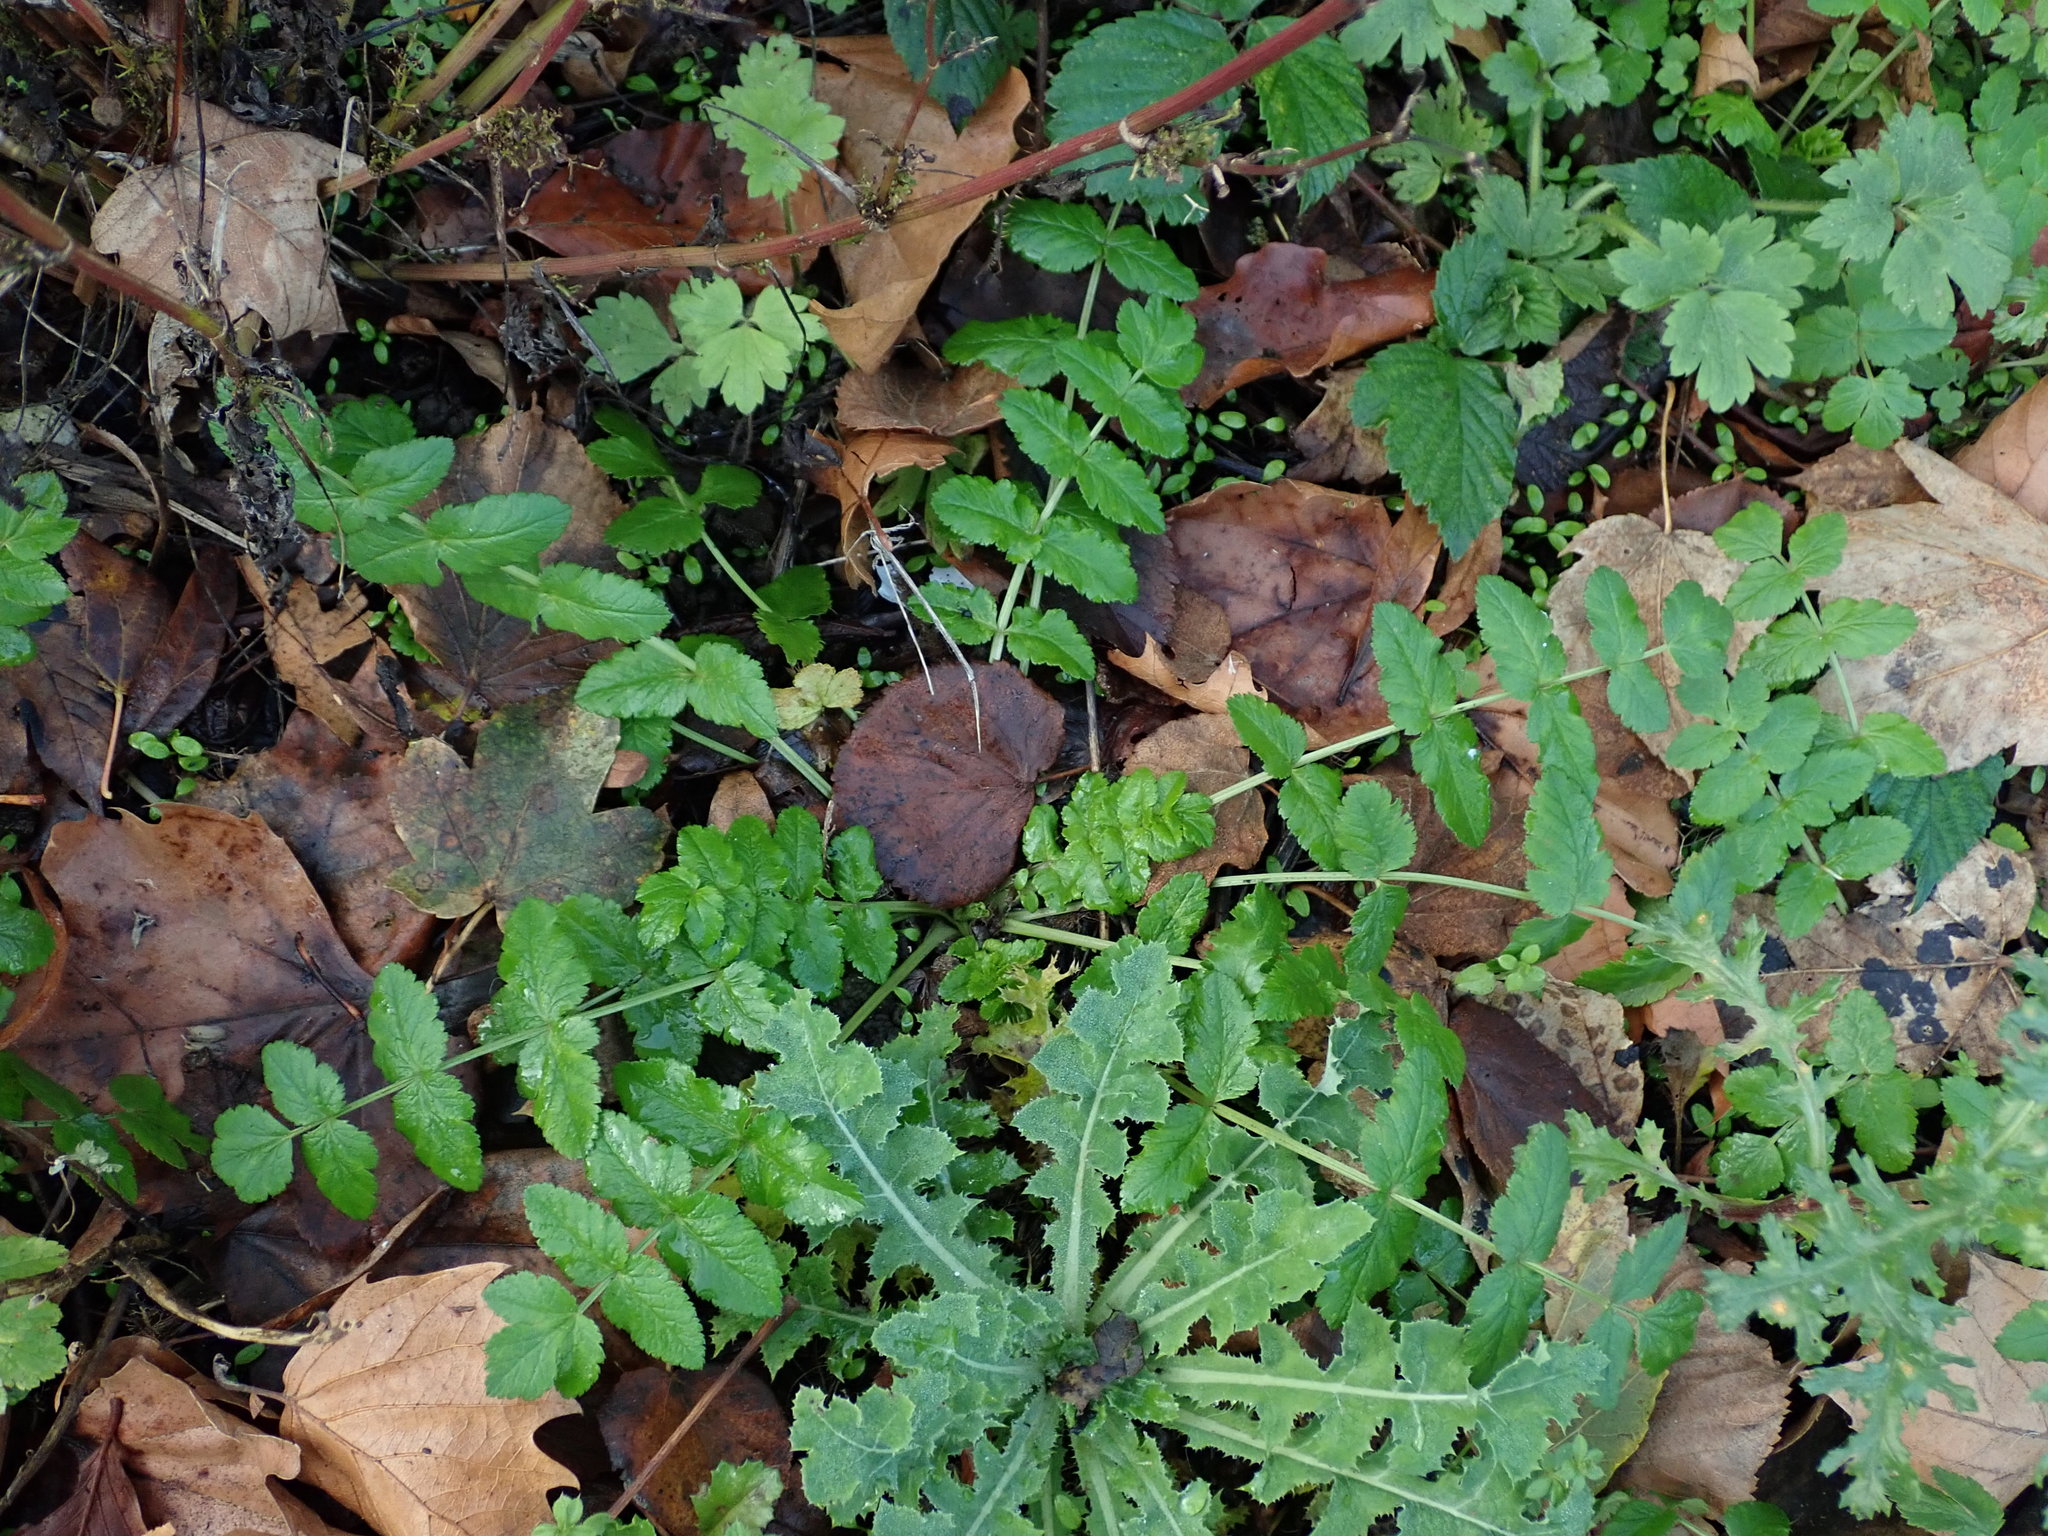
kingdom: Plantae
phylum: Tracheophyta
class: Magnoliopsida
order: Apiales
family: Apiaceae
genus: Sison
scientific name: Sison amomum
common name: Stone-parsley
